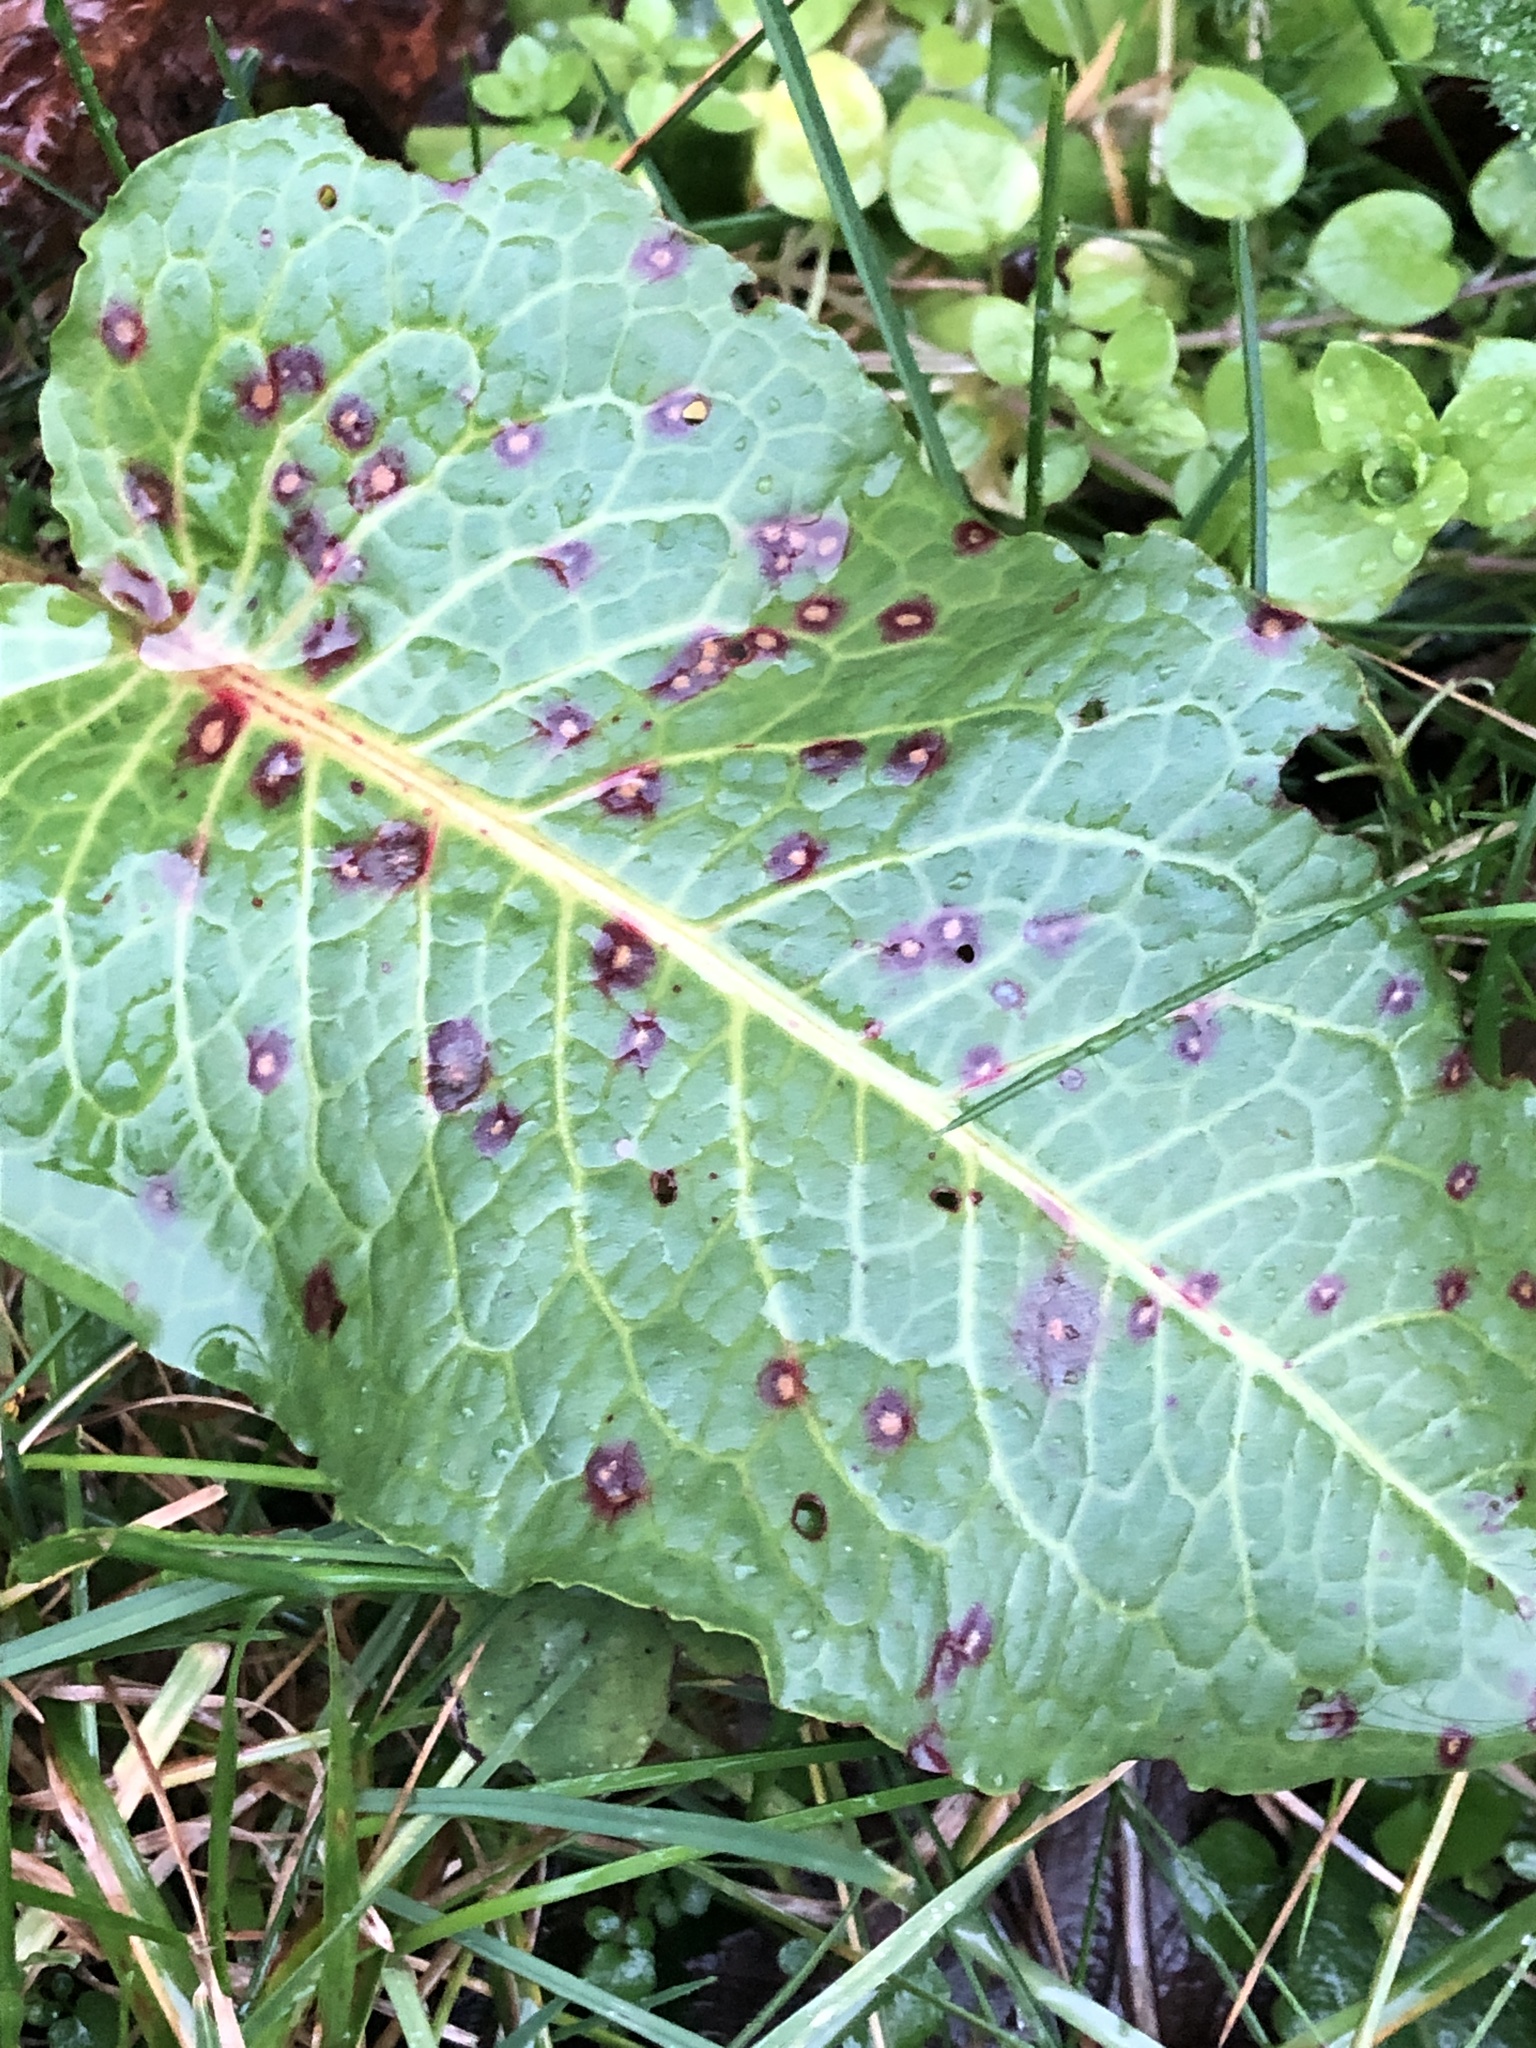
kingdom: Fungi
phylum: Ascomycota
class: Dothideomycetes
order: Mycosphaerellales
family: Mycosphaerellaceae
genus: Ramularia
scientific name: Ramularia rubella
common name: Red dock spot
